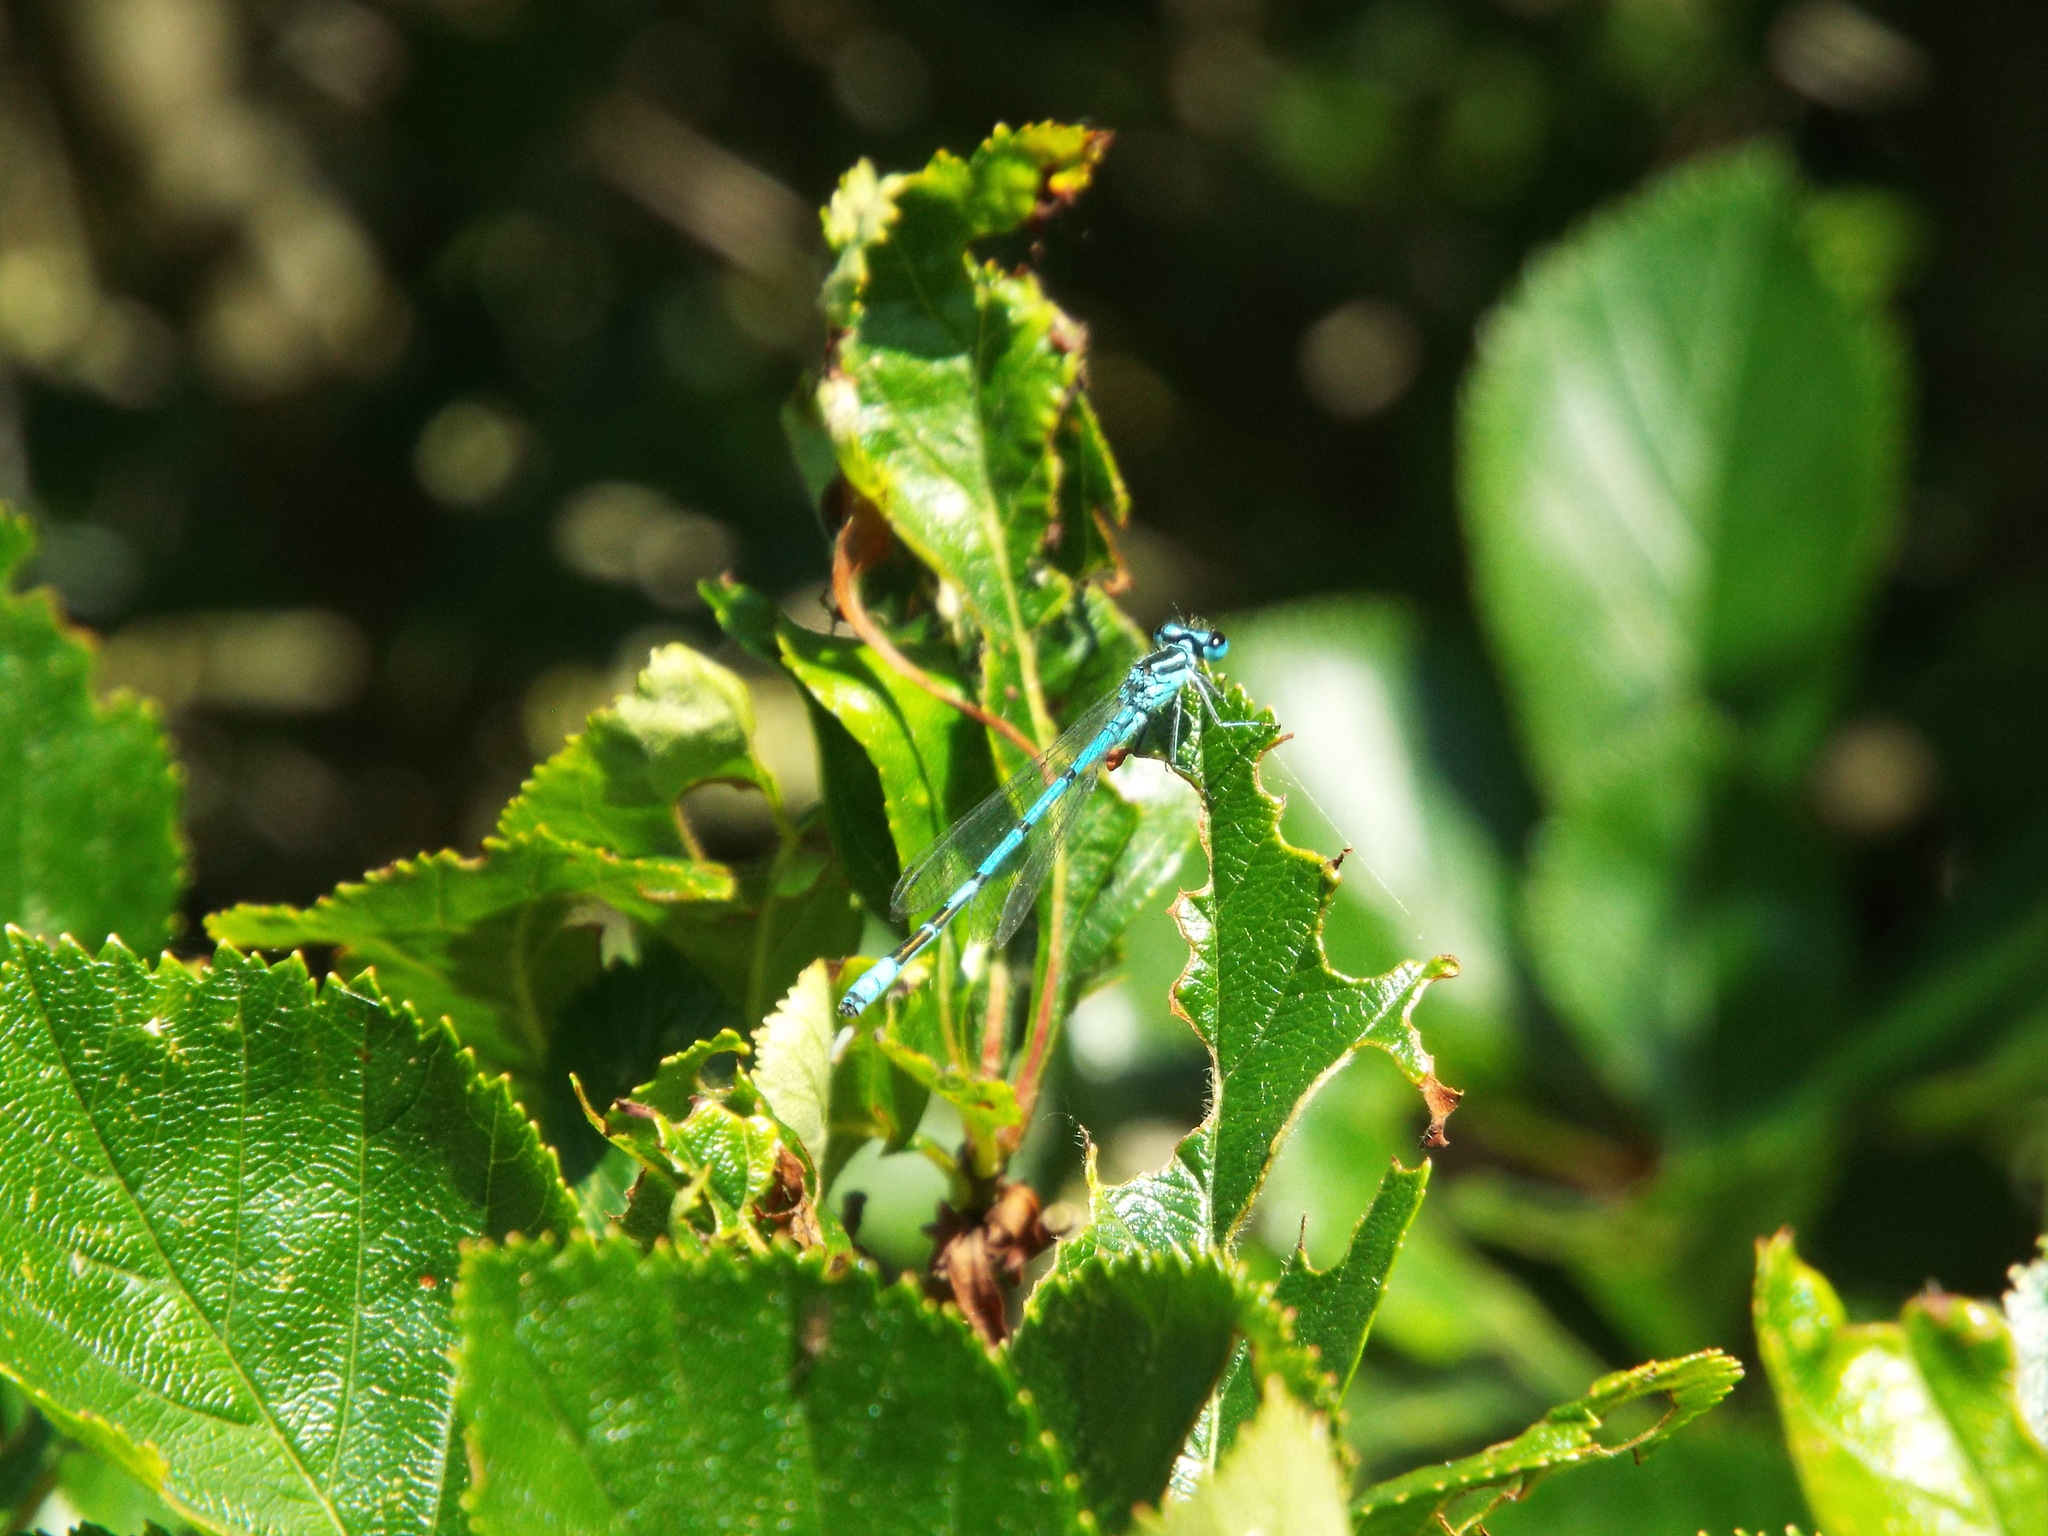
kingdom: Animalia
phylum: Arthropoda
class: Insecta
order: Odonata
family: Coenagrionidae
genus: Coenagrion
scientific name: Coenagrion puella
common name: Azure damselfly
